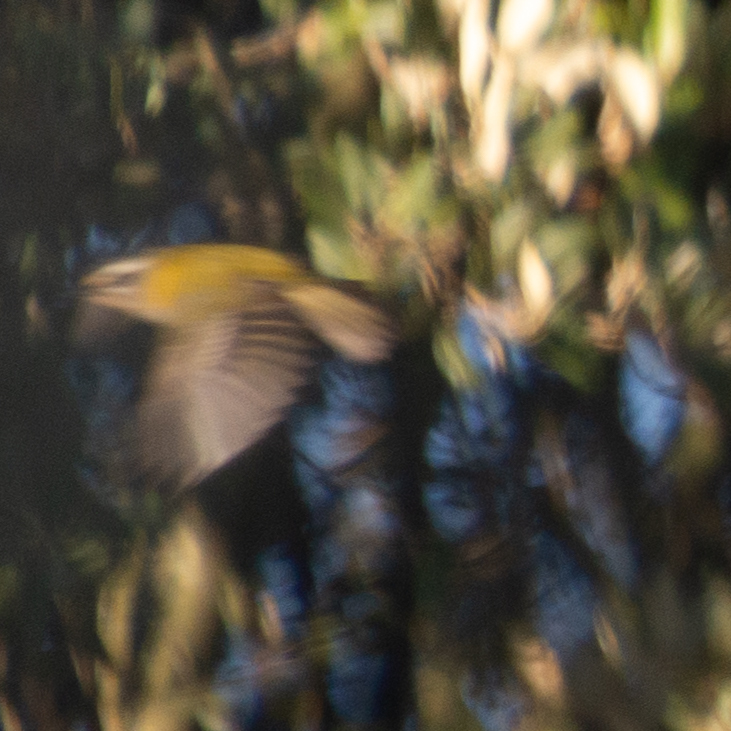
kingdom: Animalia
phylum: Chordata
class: Aves
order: Passeriformes
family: Regulidae
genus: Regulus
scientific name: Regulus ignicapilla
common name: Firecrest
